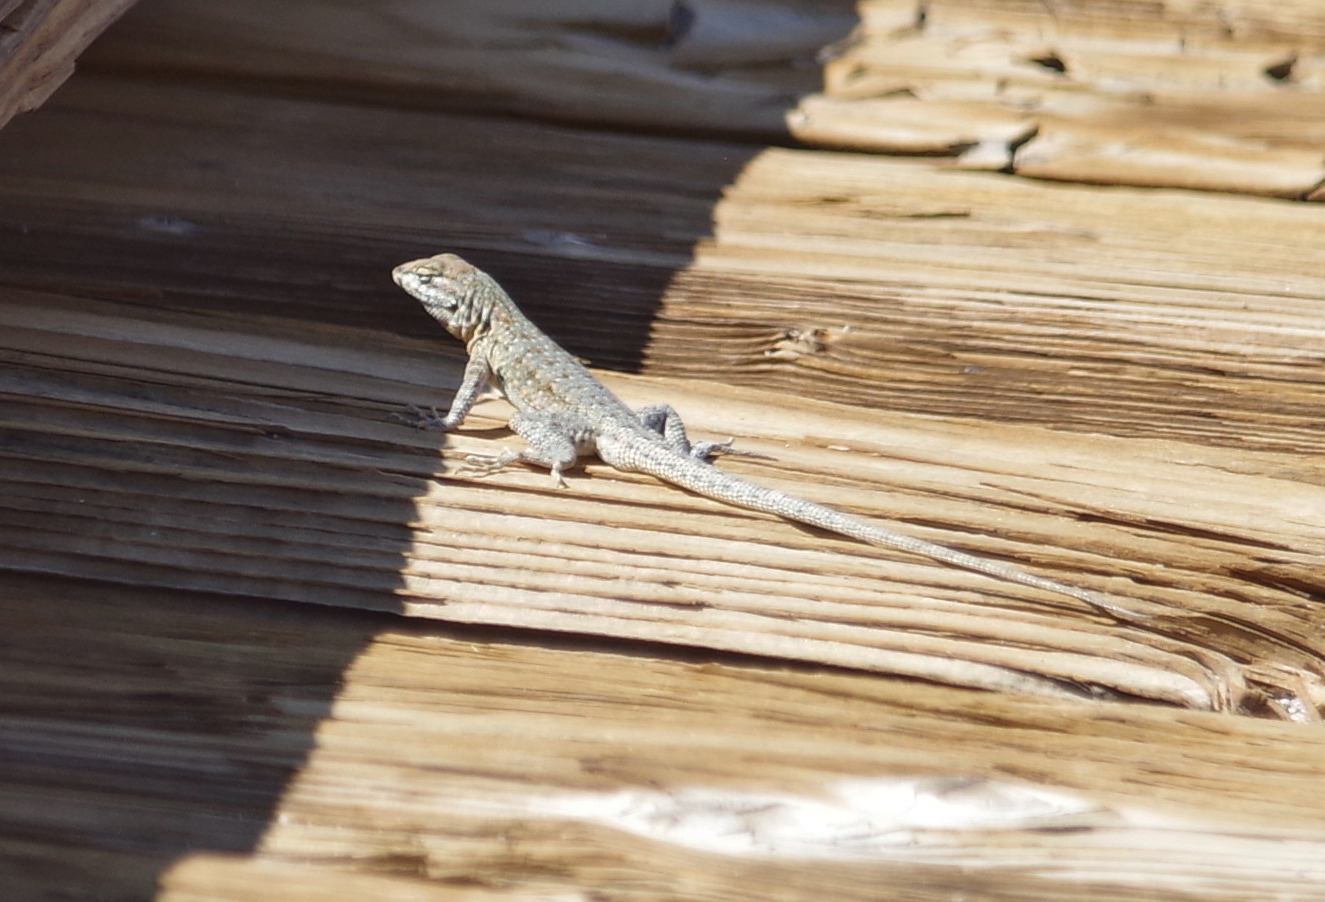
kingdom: Animalia
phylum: Chordata
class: Squamata
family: Phrynosomatidae
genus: Uta
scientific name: Uta stansburiana
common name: Side-blotched lizard
